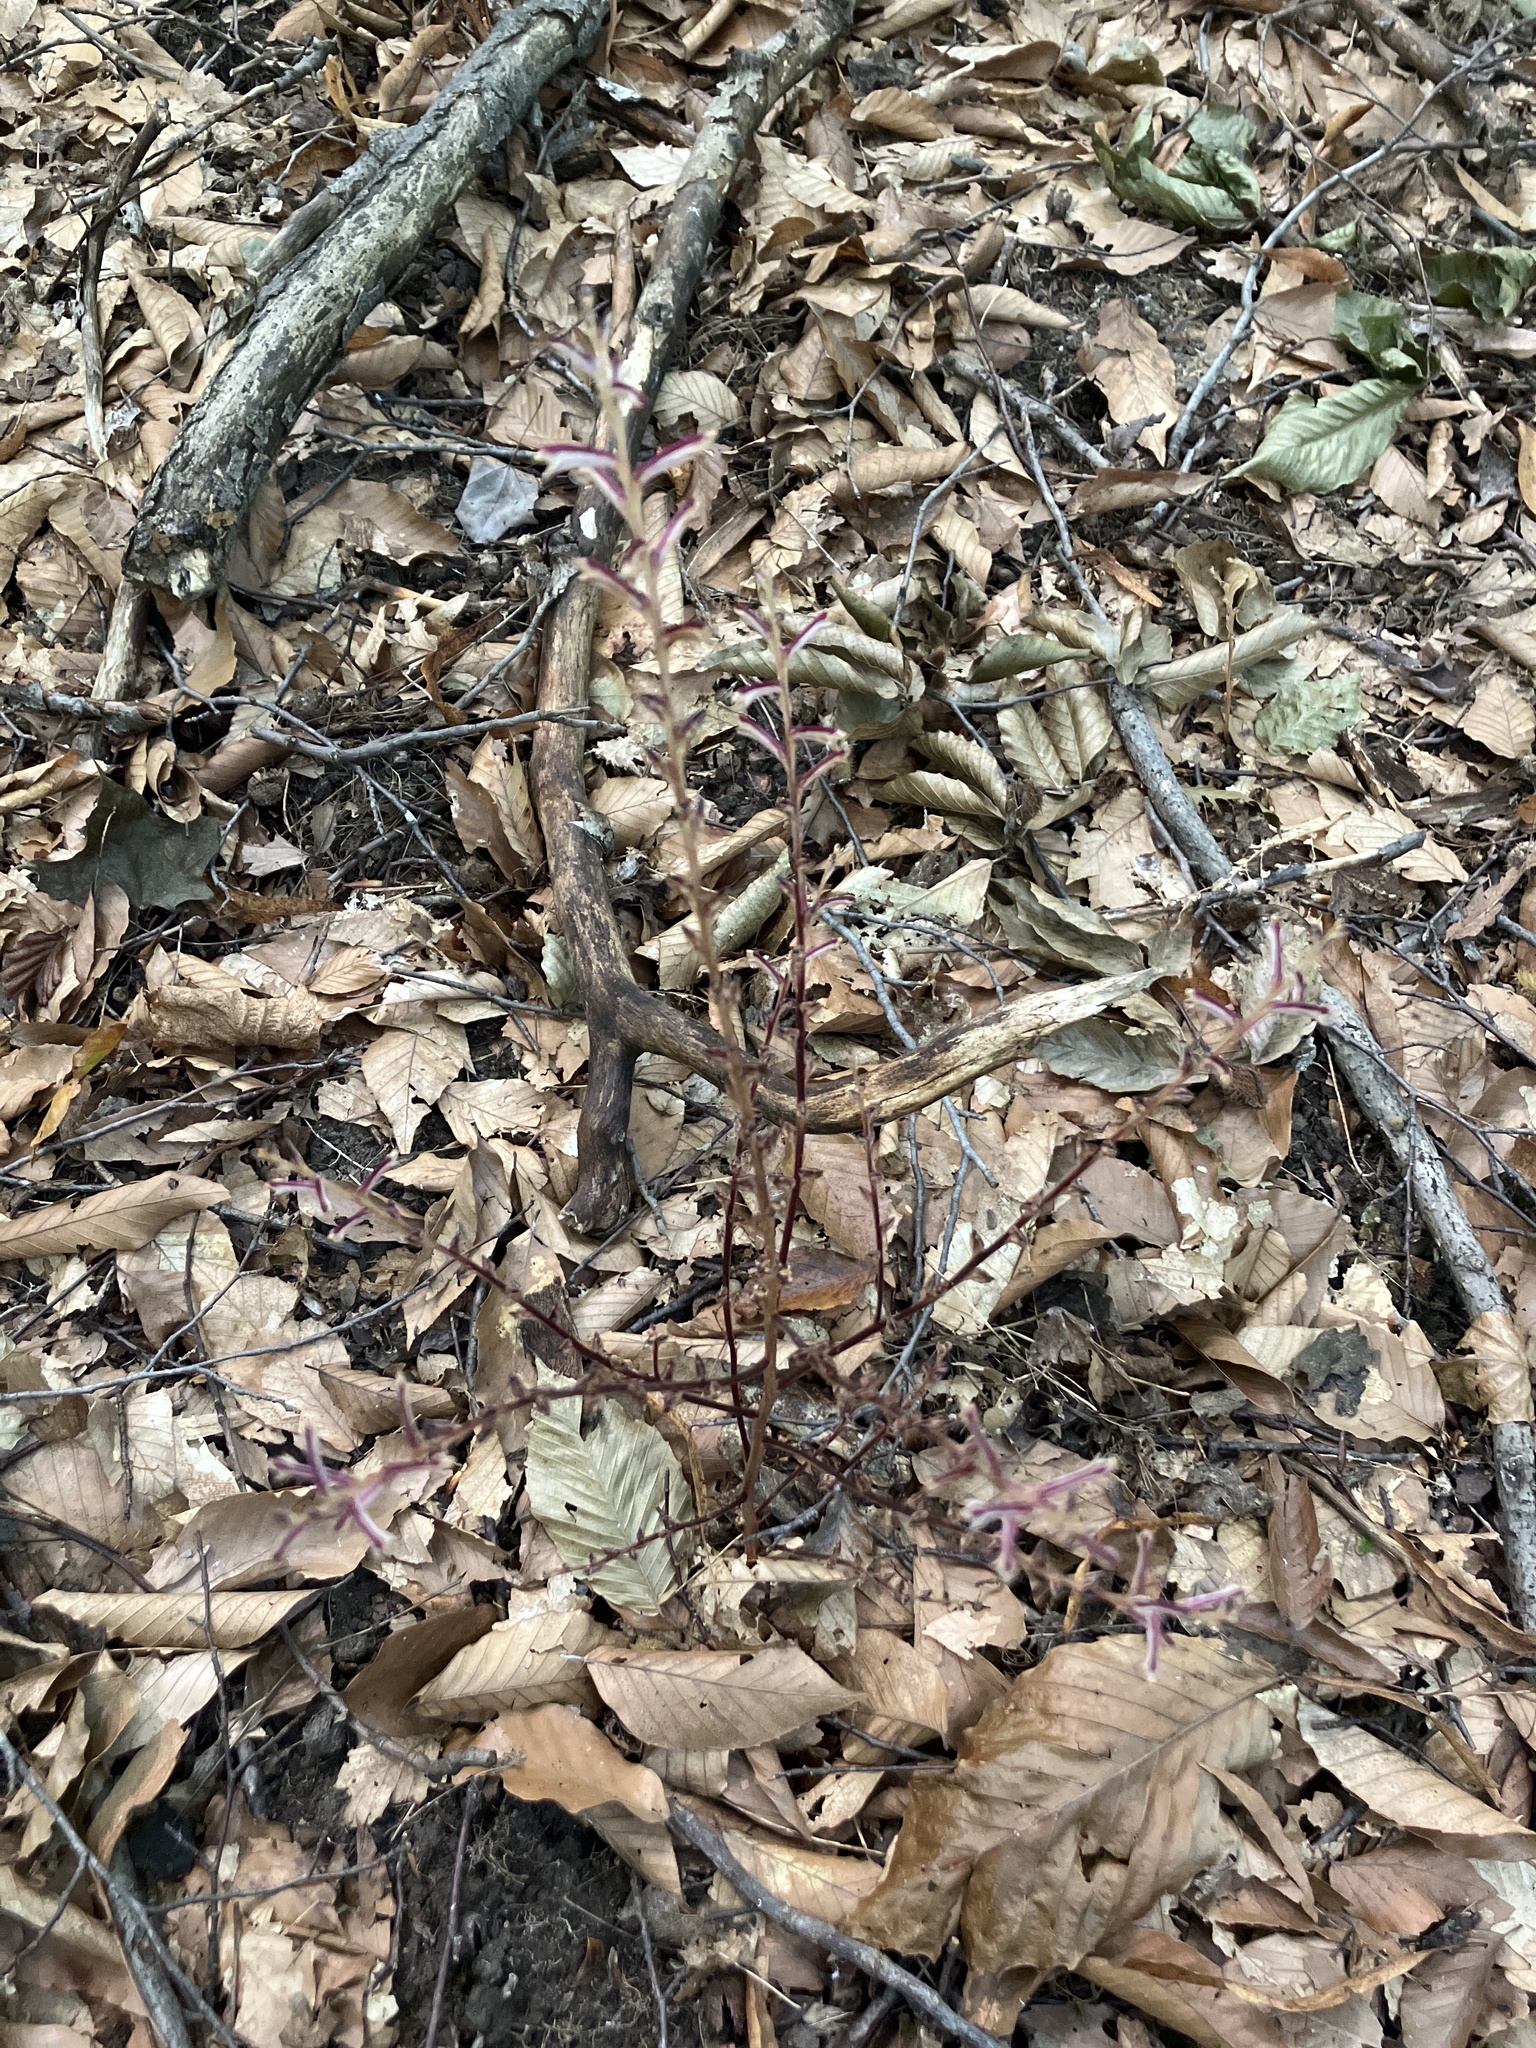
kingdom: Plantae
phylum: Tracheophyta
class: Magnoliopsida
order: Lamiales
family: Orobanchaceae
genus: Epifagus
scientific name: Epifagus virginiana
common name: Beechdrops
